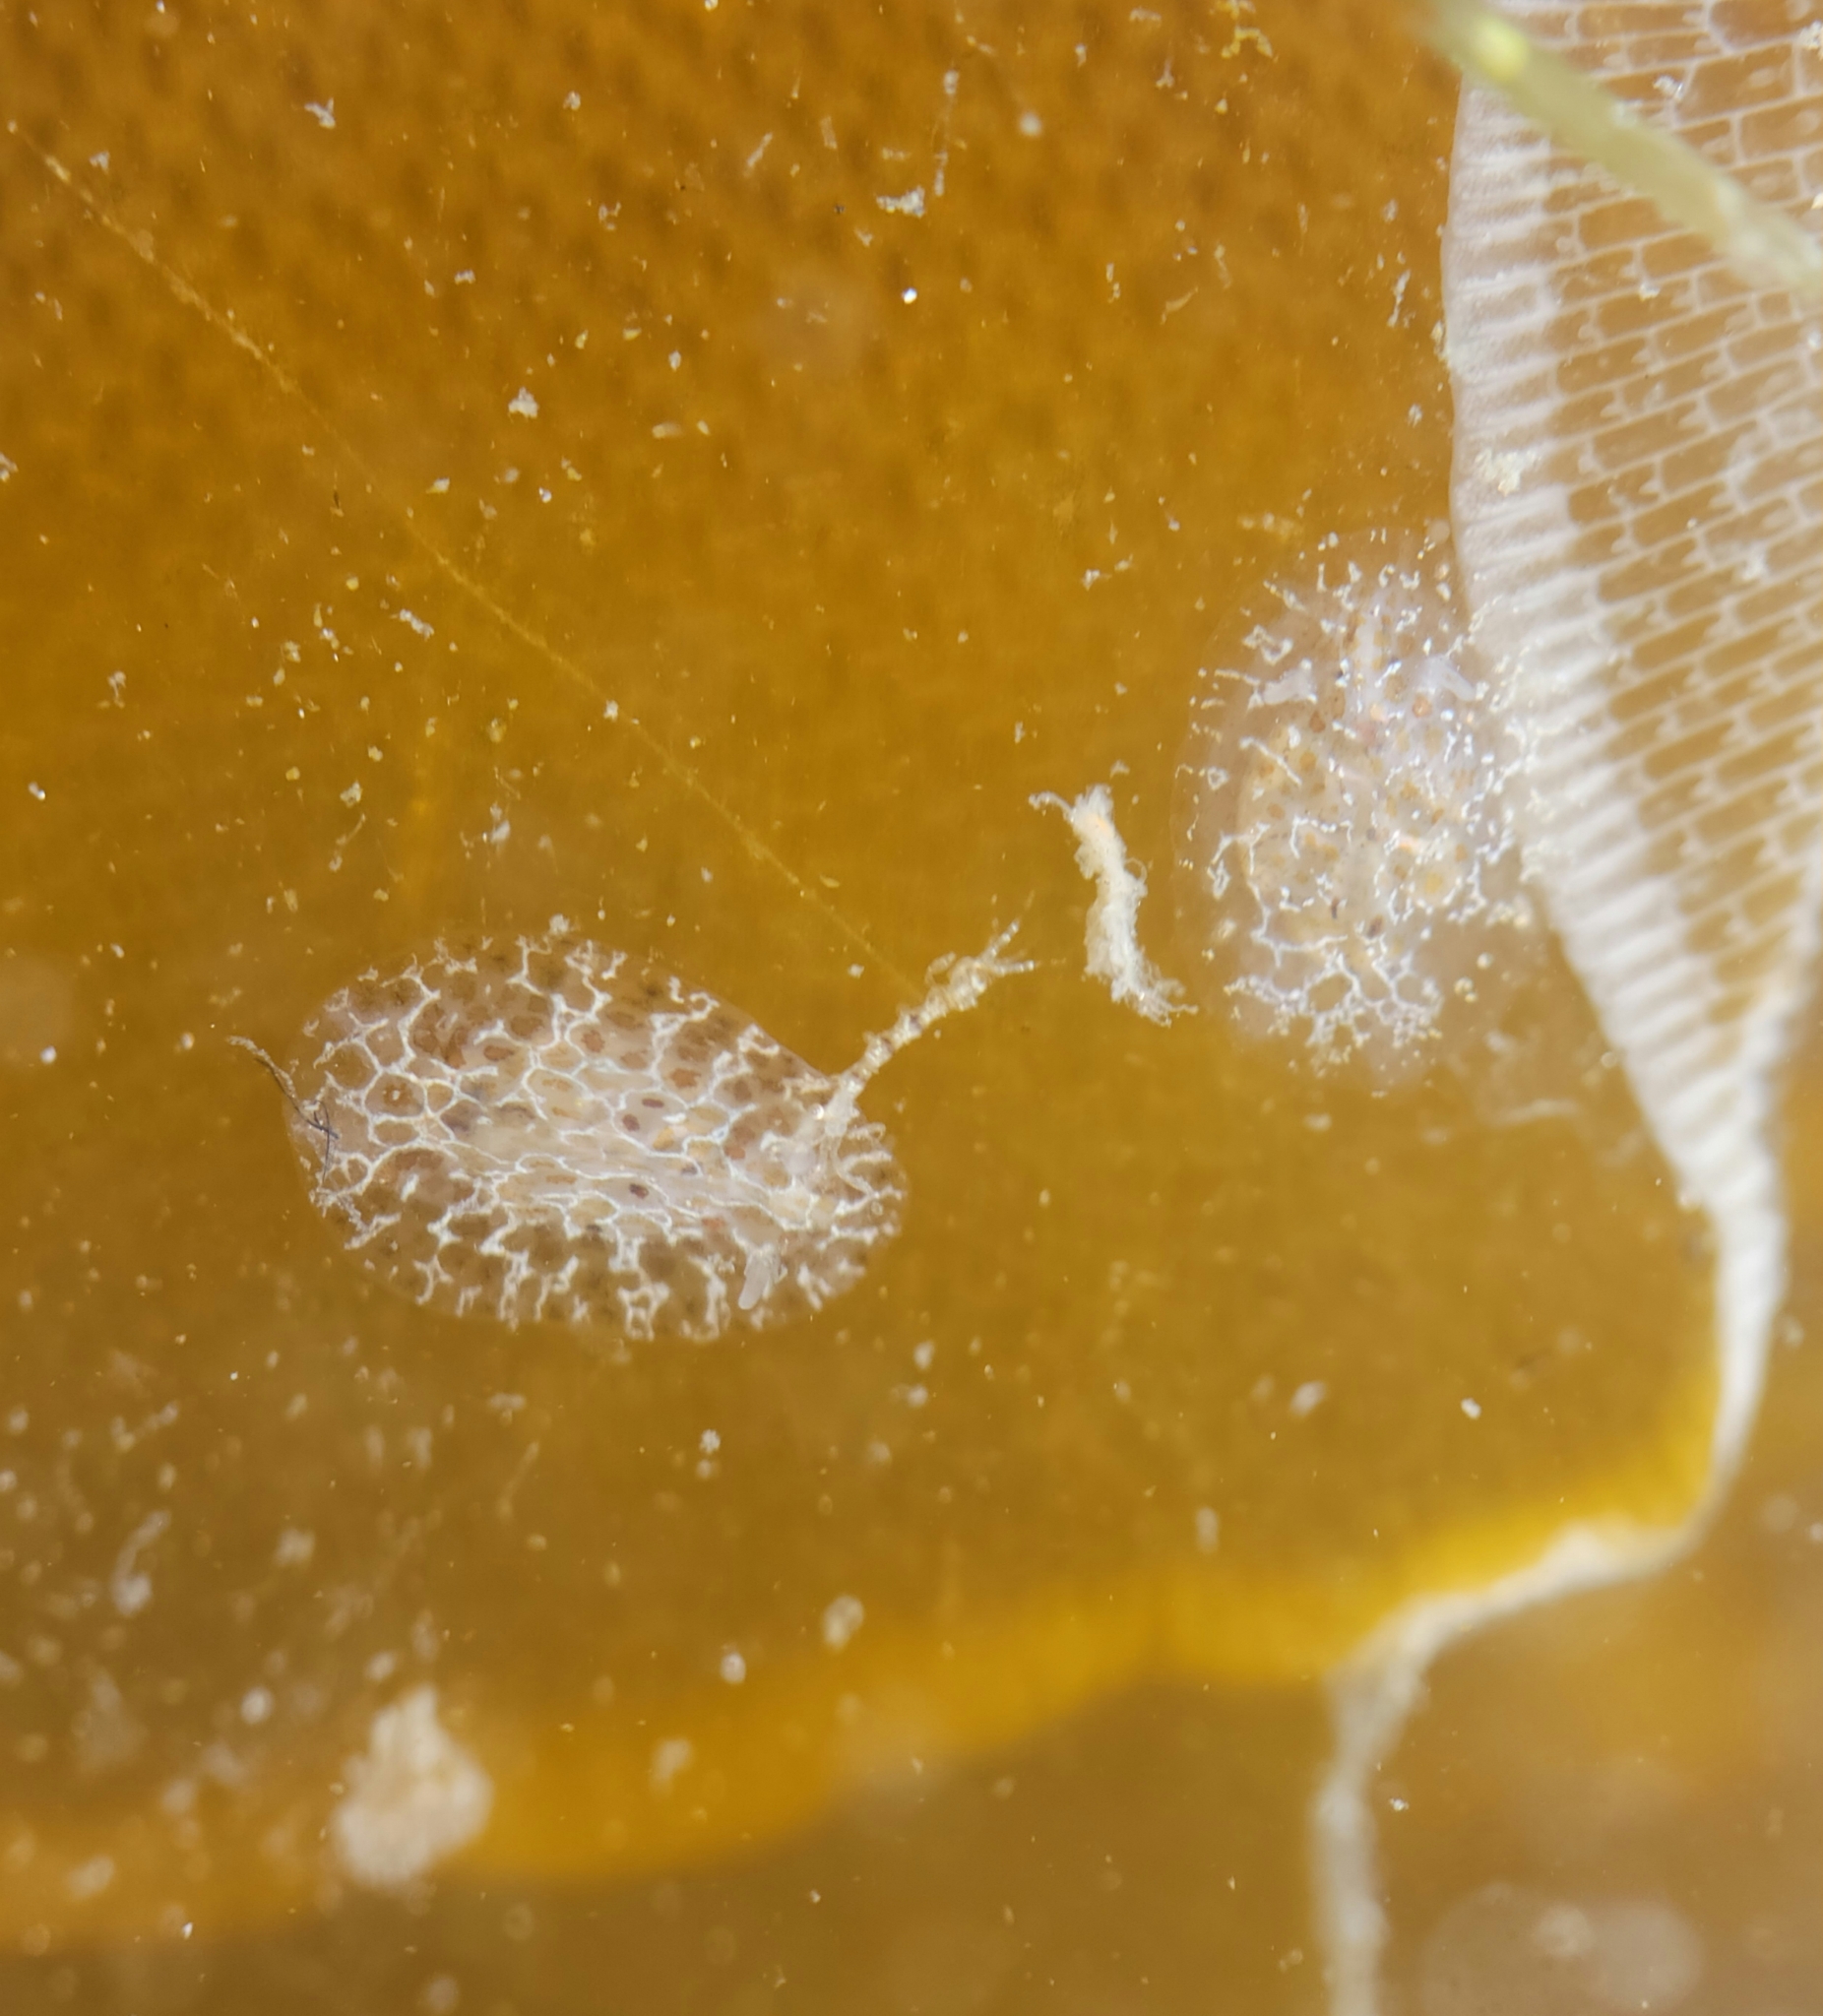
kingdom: Animalia
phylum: Mollusca
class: Gastropoda
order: Nudibranchia
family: Corambidae
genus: Corambe
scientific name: Corambe steinbergae
